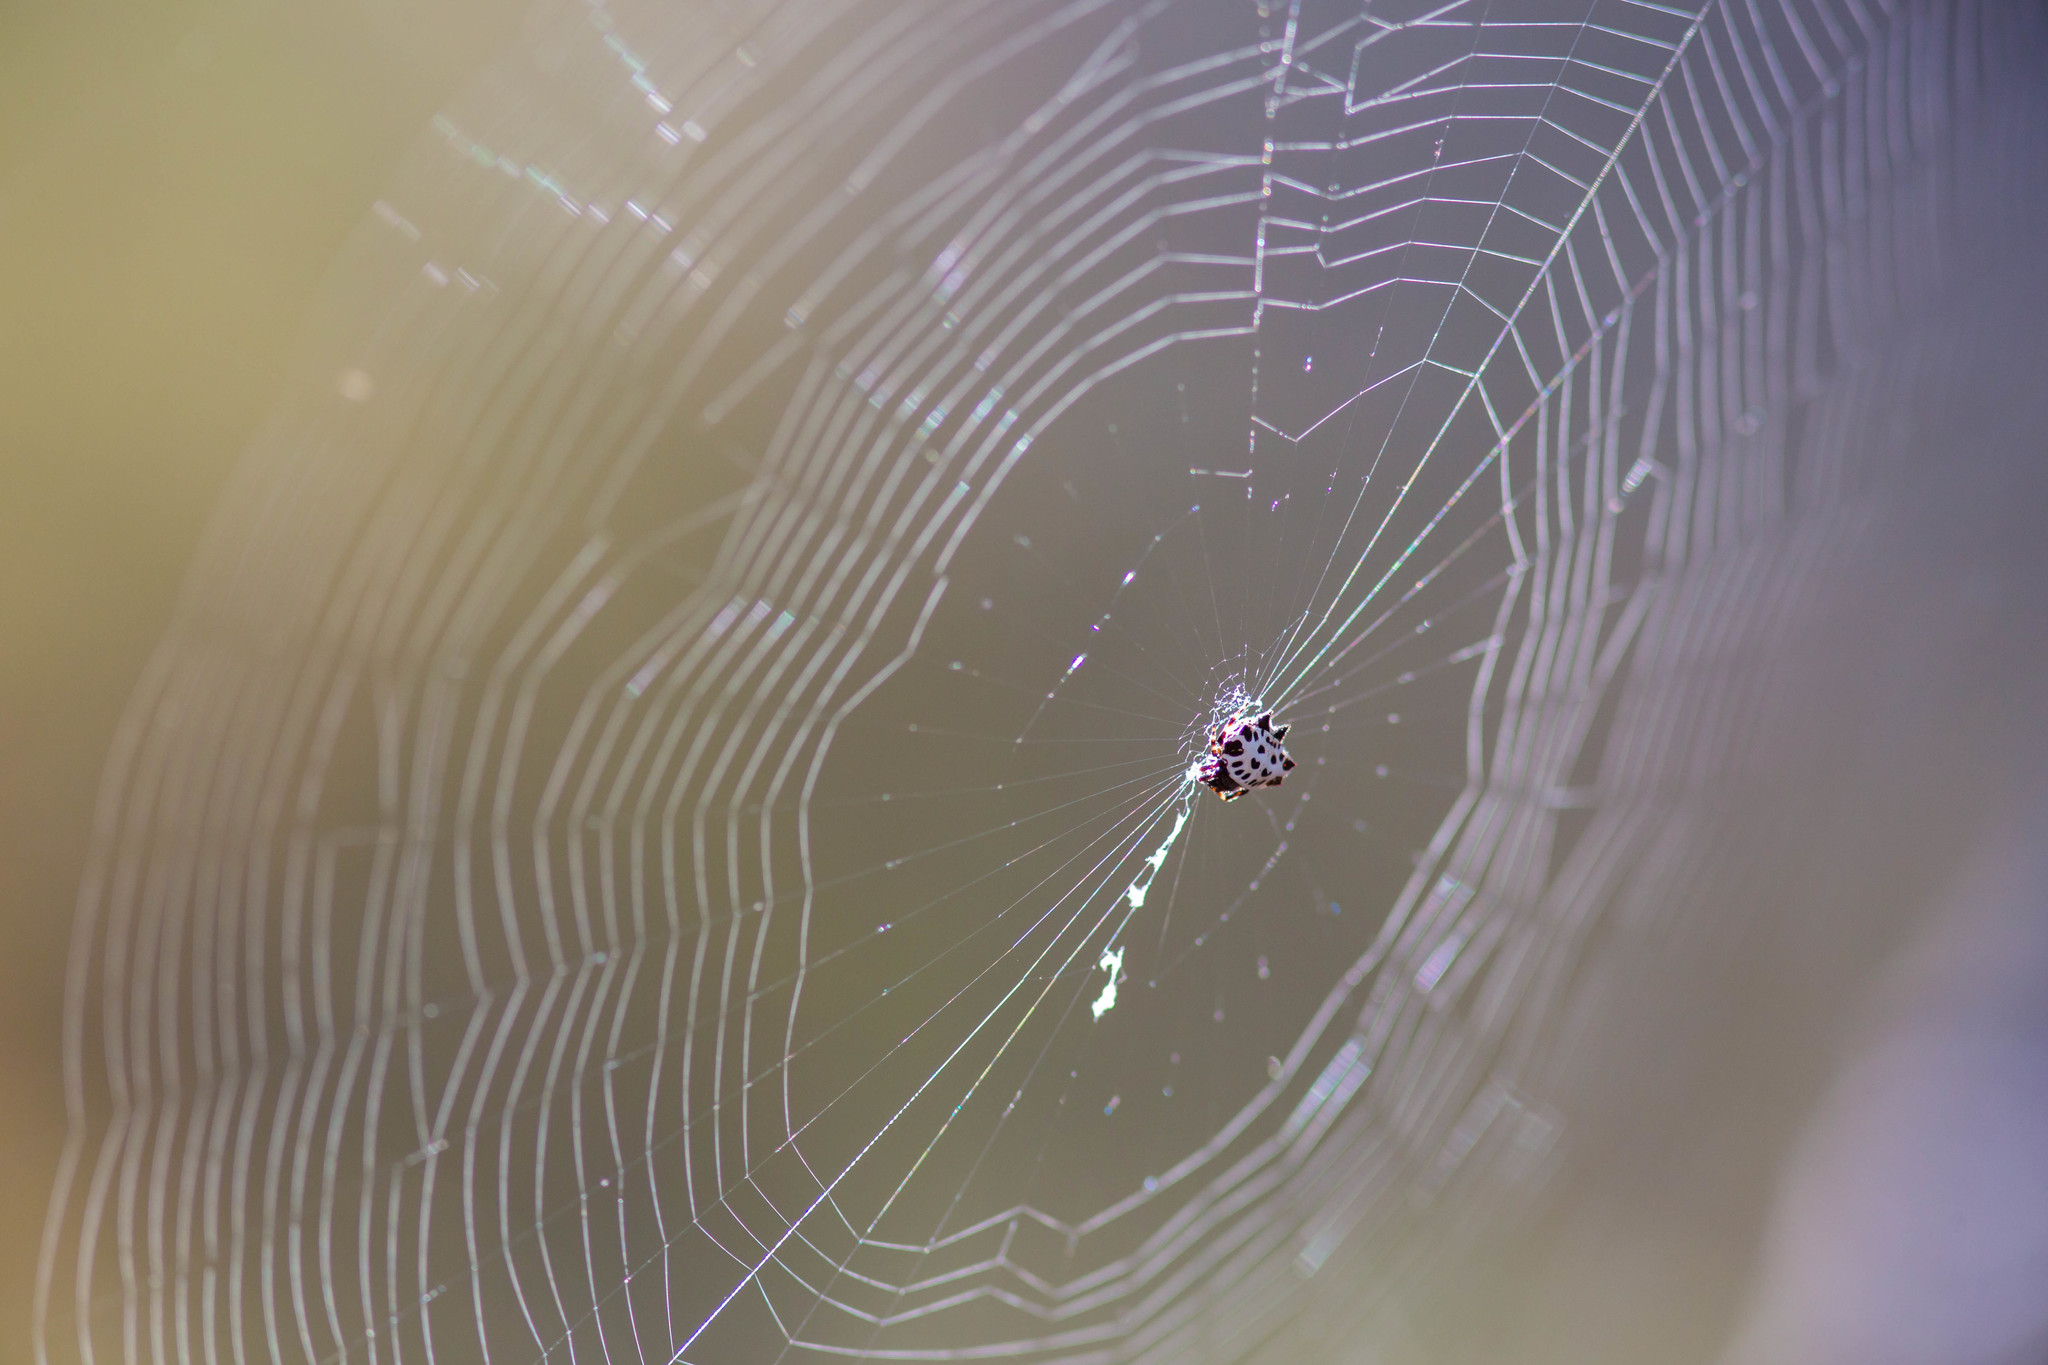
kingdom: Animalia
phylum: Arthropoda
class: Arachnida
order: Araneae
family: Araneidae
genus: Gasteracantha
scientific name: Gasteracantha cancriformis
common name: Orb weavers
